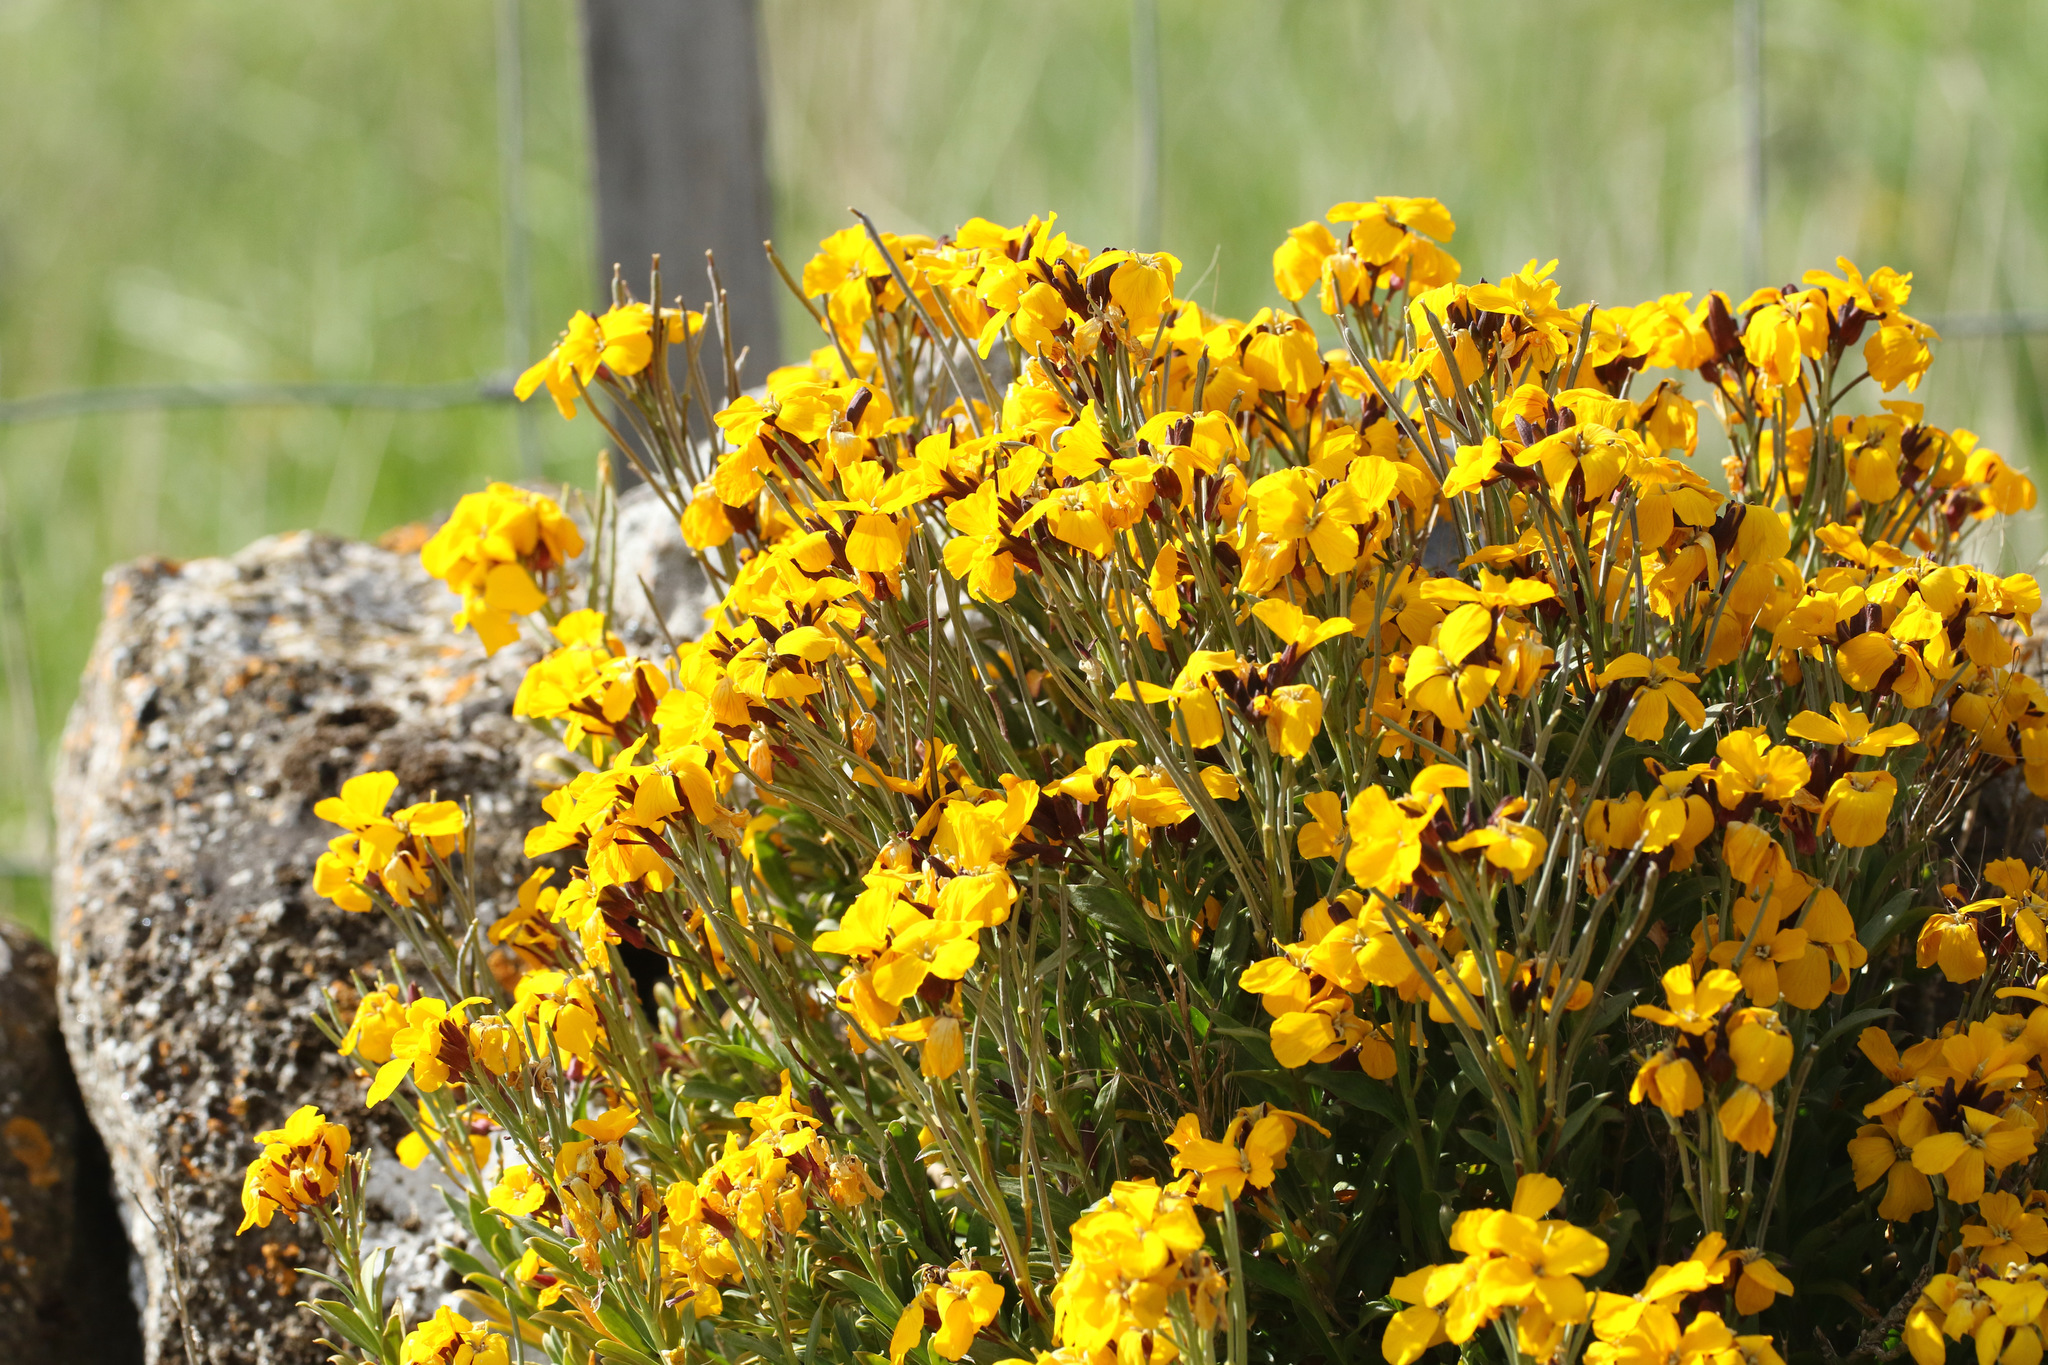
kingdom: Plantae
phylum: Tracheophyta
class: Magnoliopsida
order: Brassicales
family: Brassicaceae
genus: Erysimum
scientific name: Erysimum cheiri
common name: Wallflower
